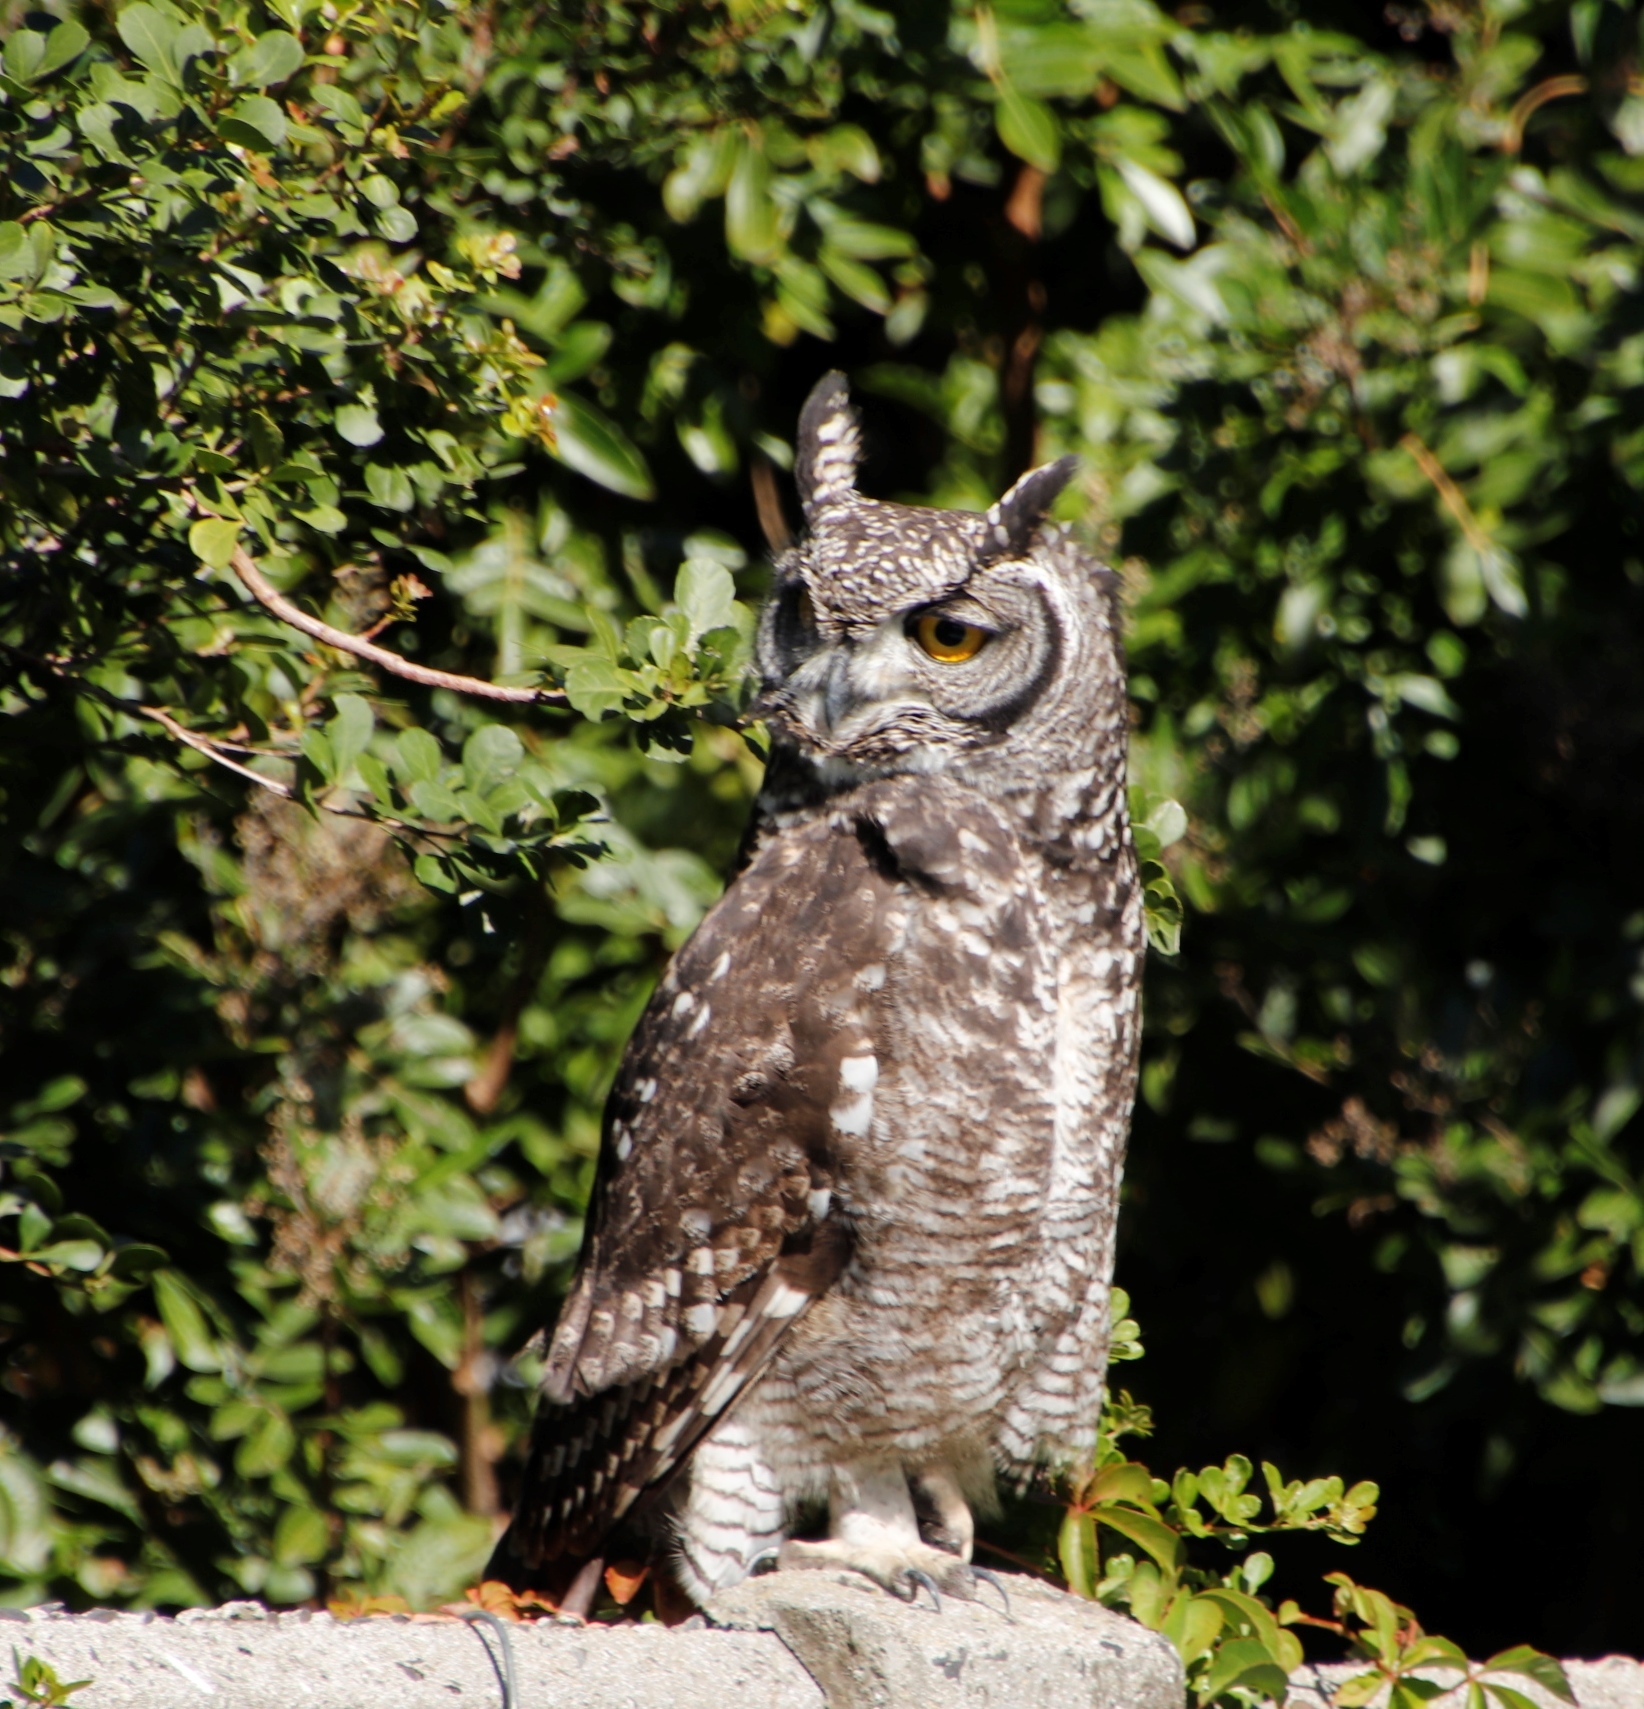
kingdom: Animalia
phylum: Chordata
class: Aves
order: Strigiformes
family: Strigidae
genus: Bubo
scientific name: Bubo africanus
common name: Spotted eagle-owl
